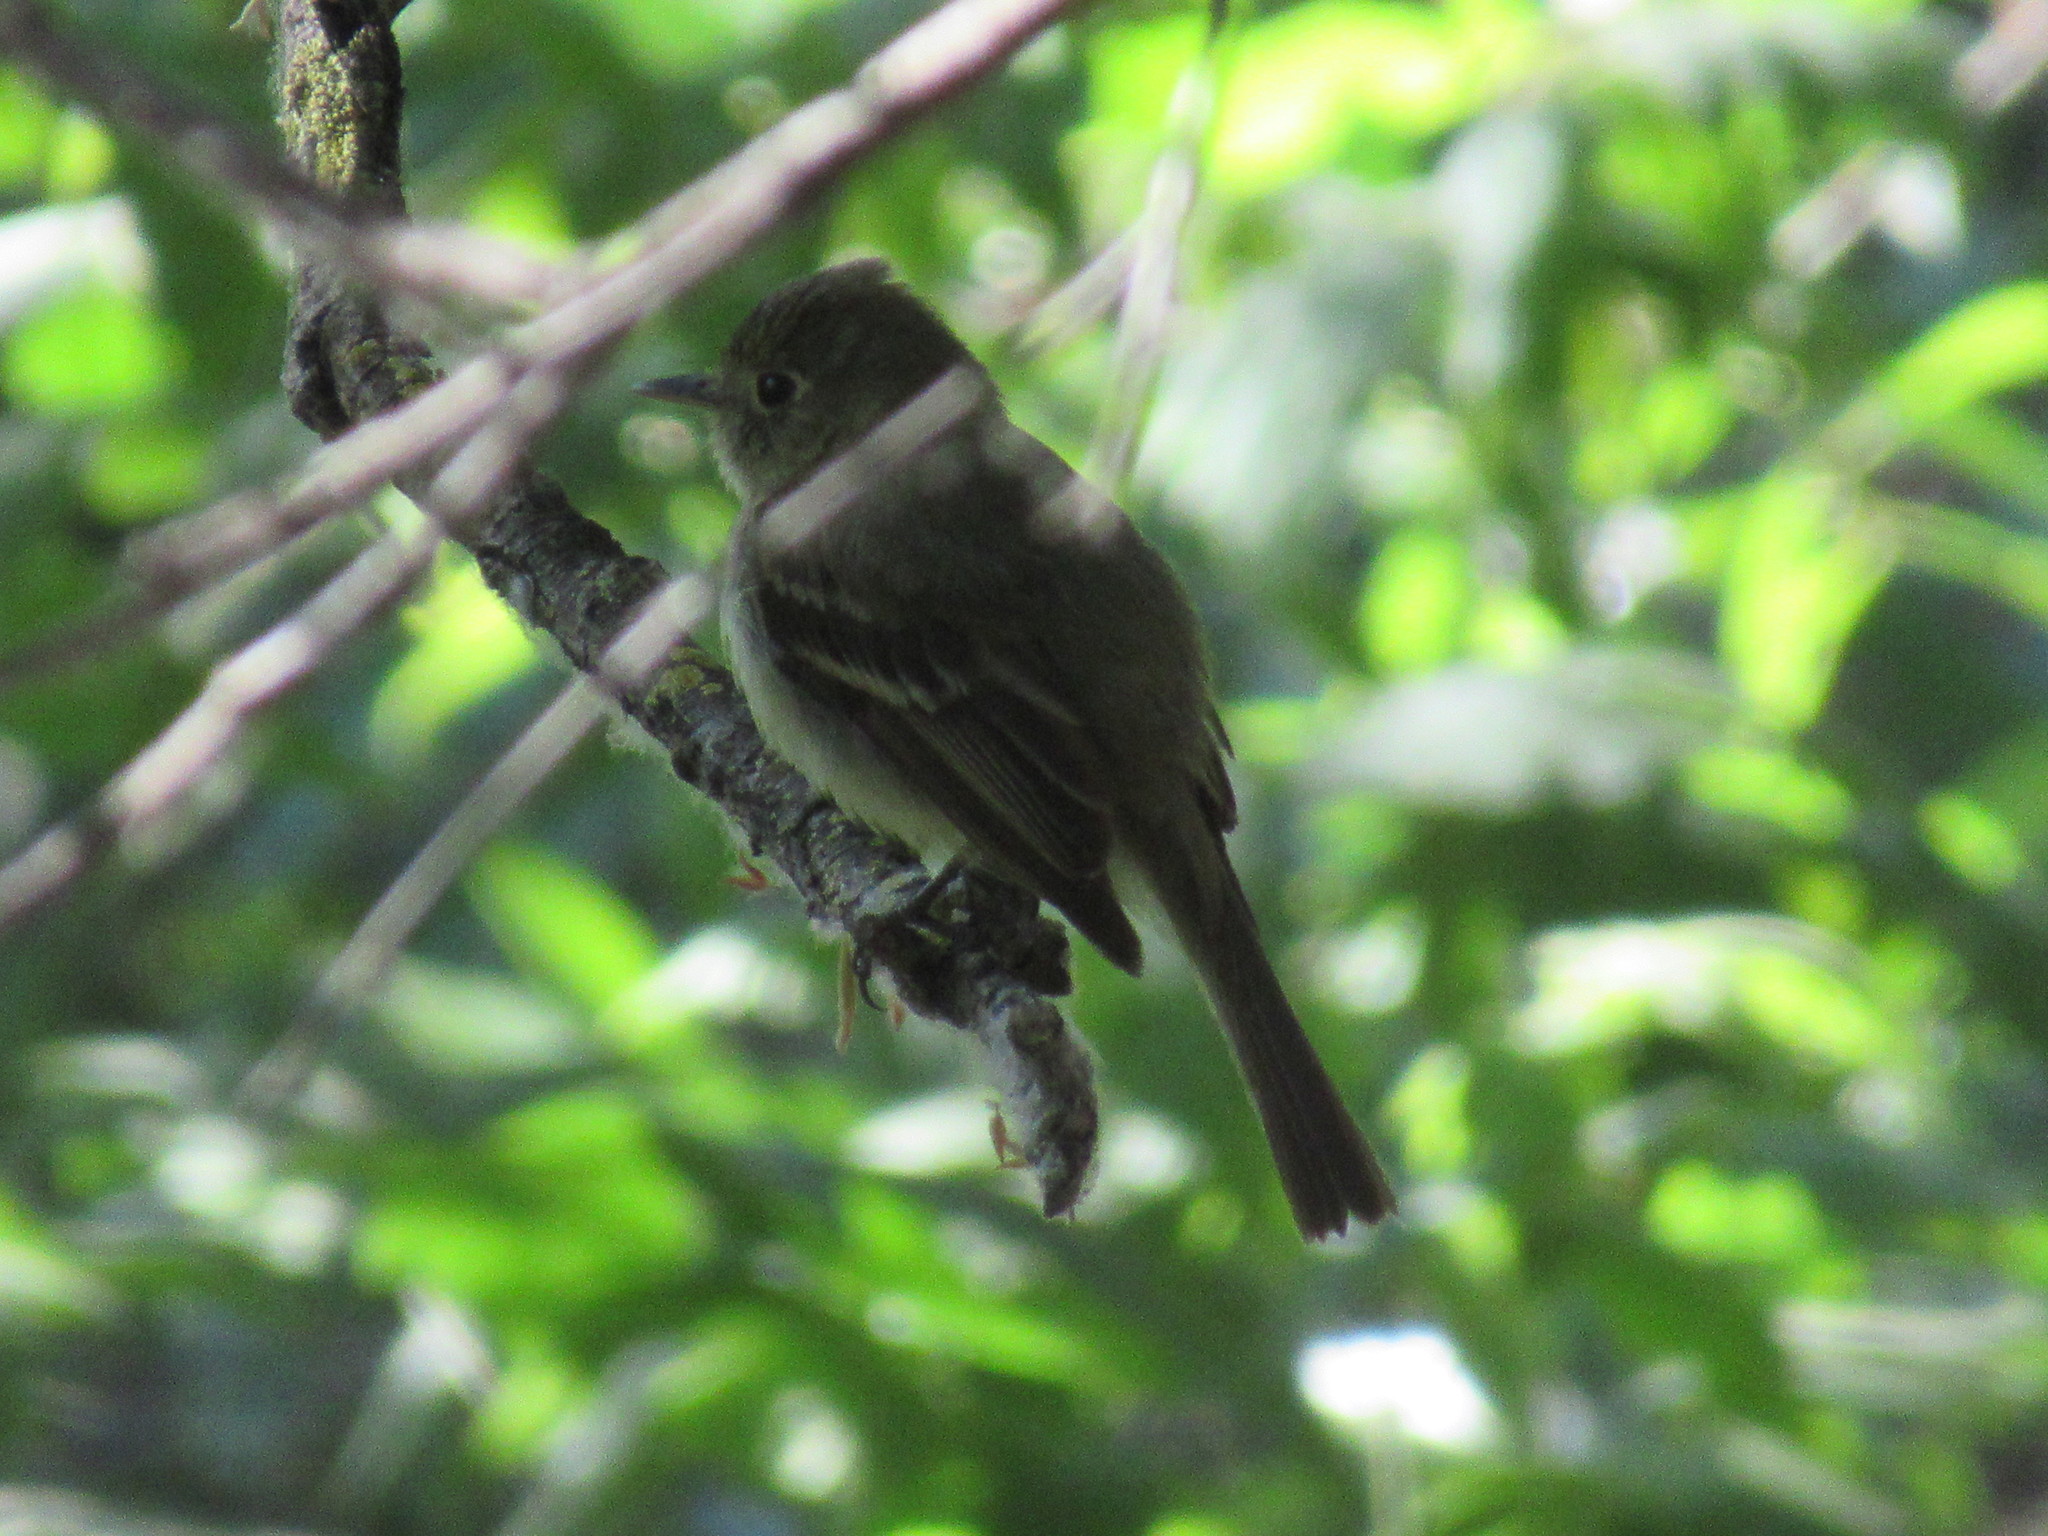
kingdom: Animalia
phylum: Chordata
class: Aves
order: Passeriformes
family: Tyrannidae
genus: Empidonax
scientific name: Empidonax difficilis
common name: Pacific-slope flycatcher
